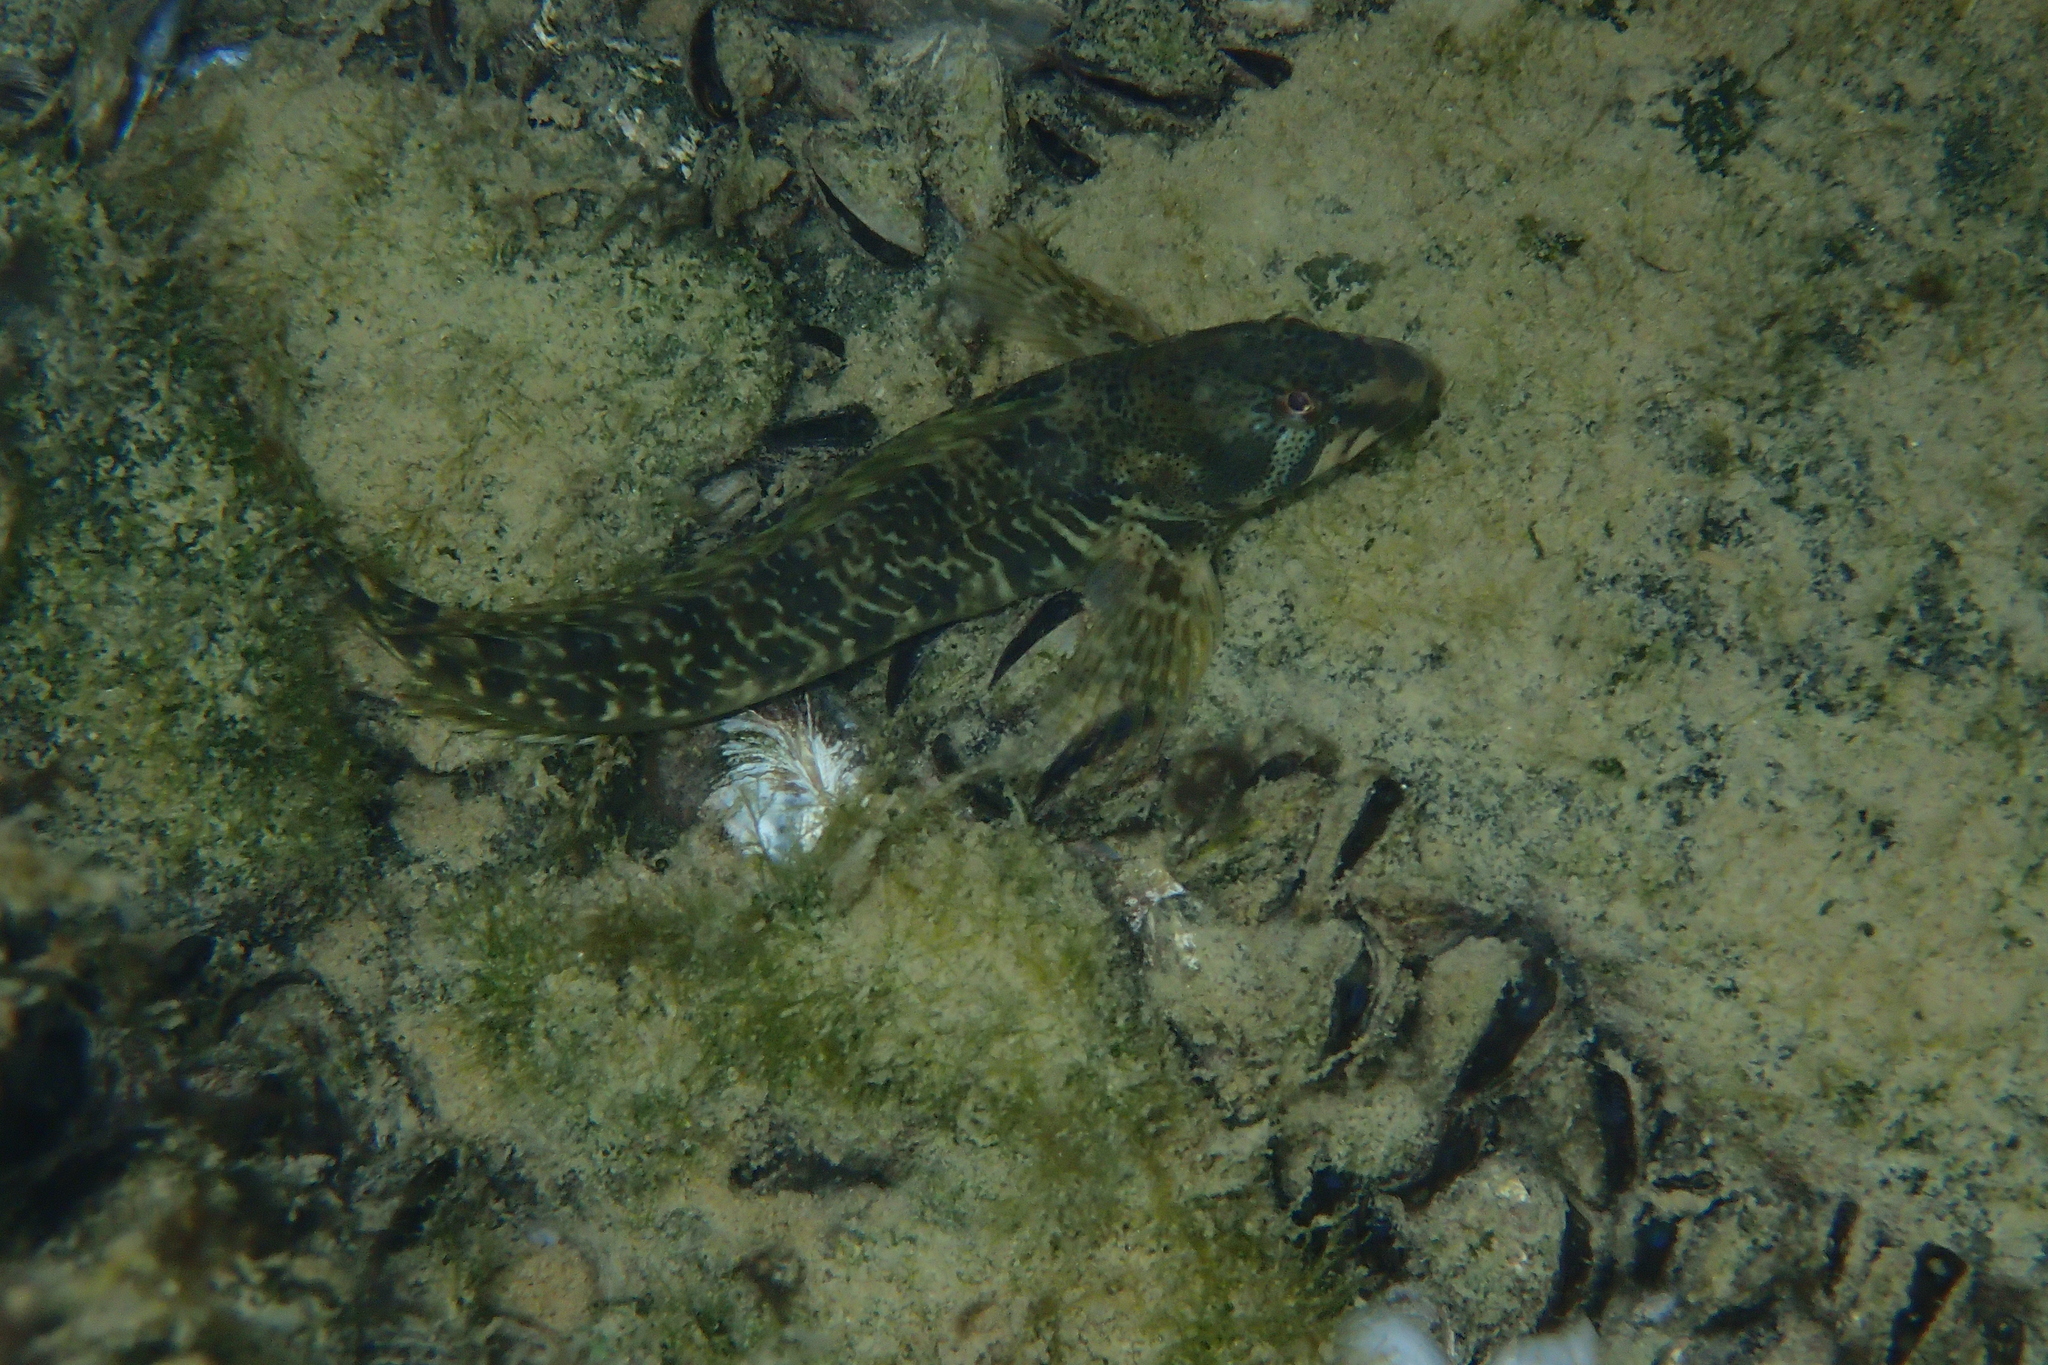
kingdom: Animalia
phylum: Chordata
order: Perciformes
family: Blenniidae
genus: Salaria
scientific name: Salaria fluviatilis
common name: Freshwater blenny
